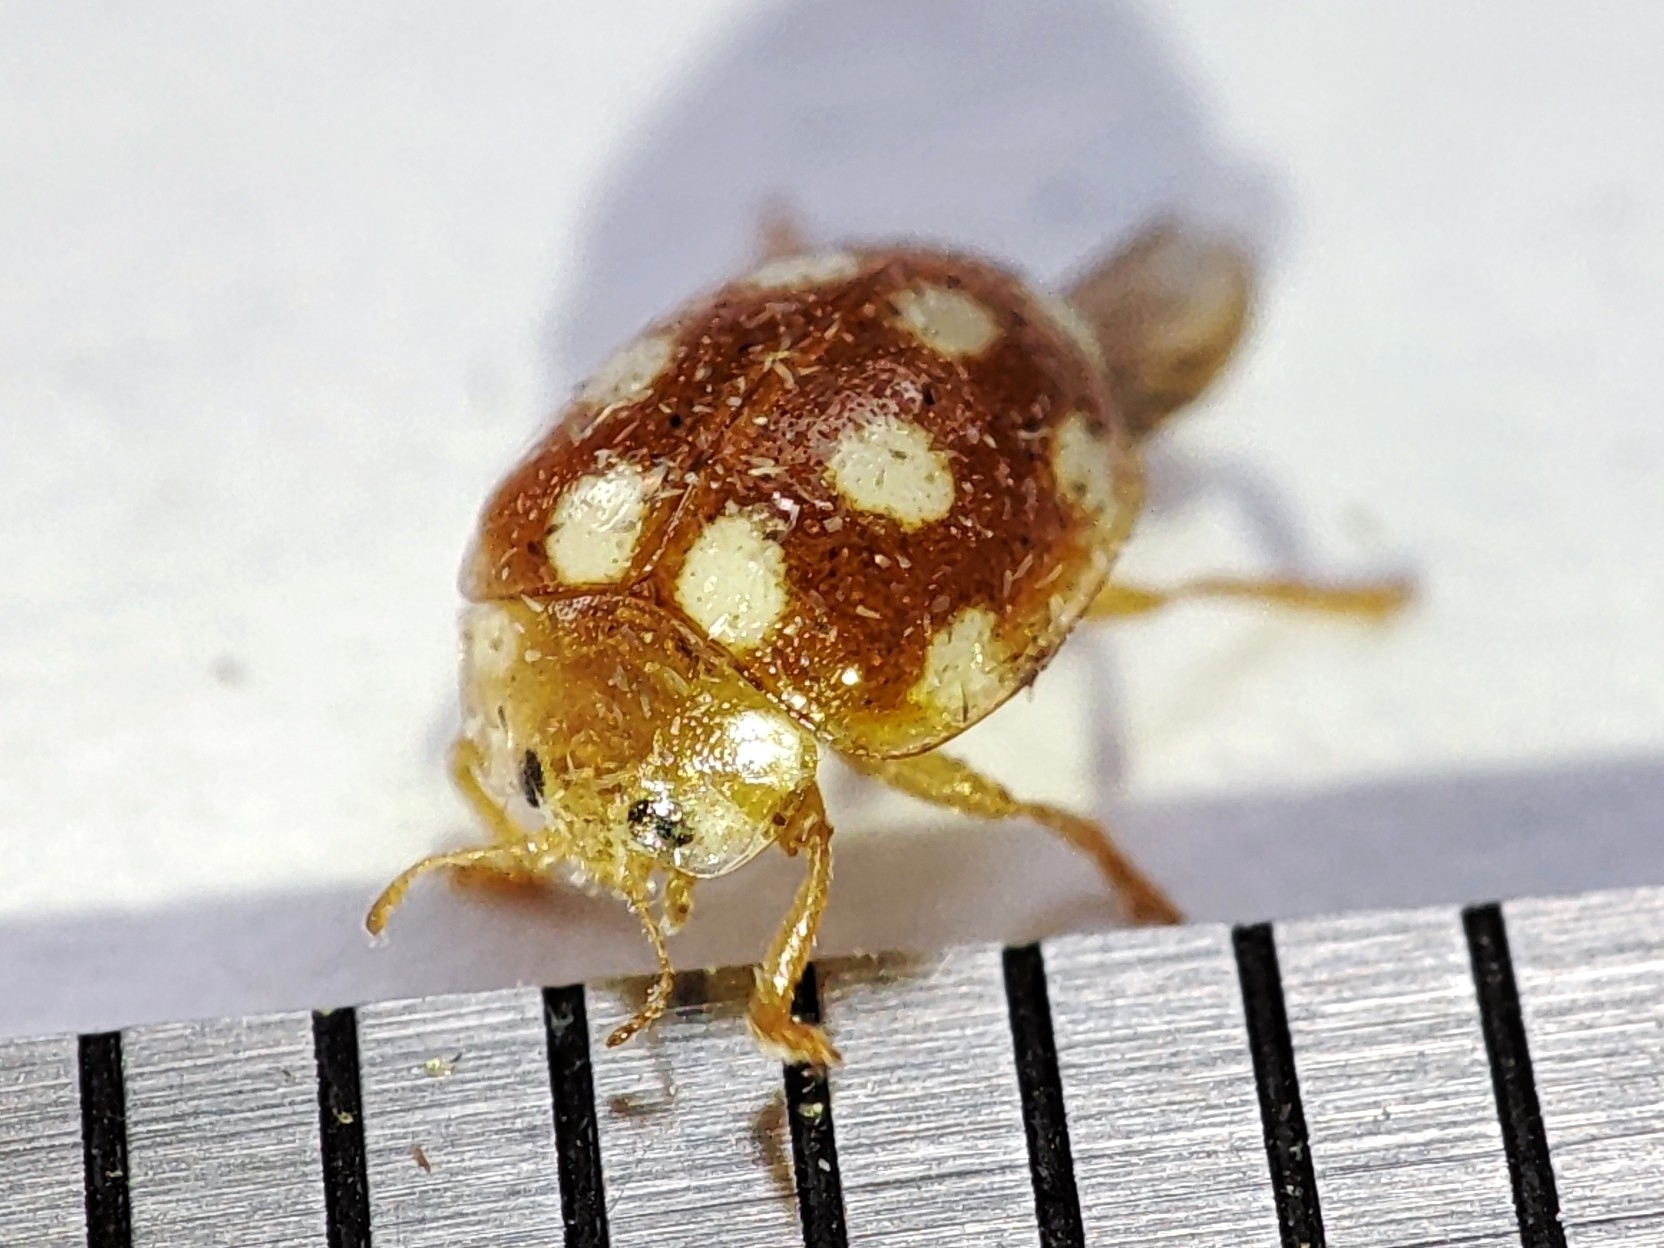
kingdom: Animalia
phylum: Arthropoda
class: Insecta
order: Coleoptera
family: Coccinellidae
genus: Vibidia
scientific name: Vibidia duodecimguttata
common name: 12-spot ladybird
